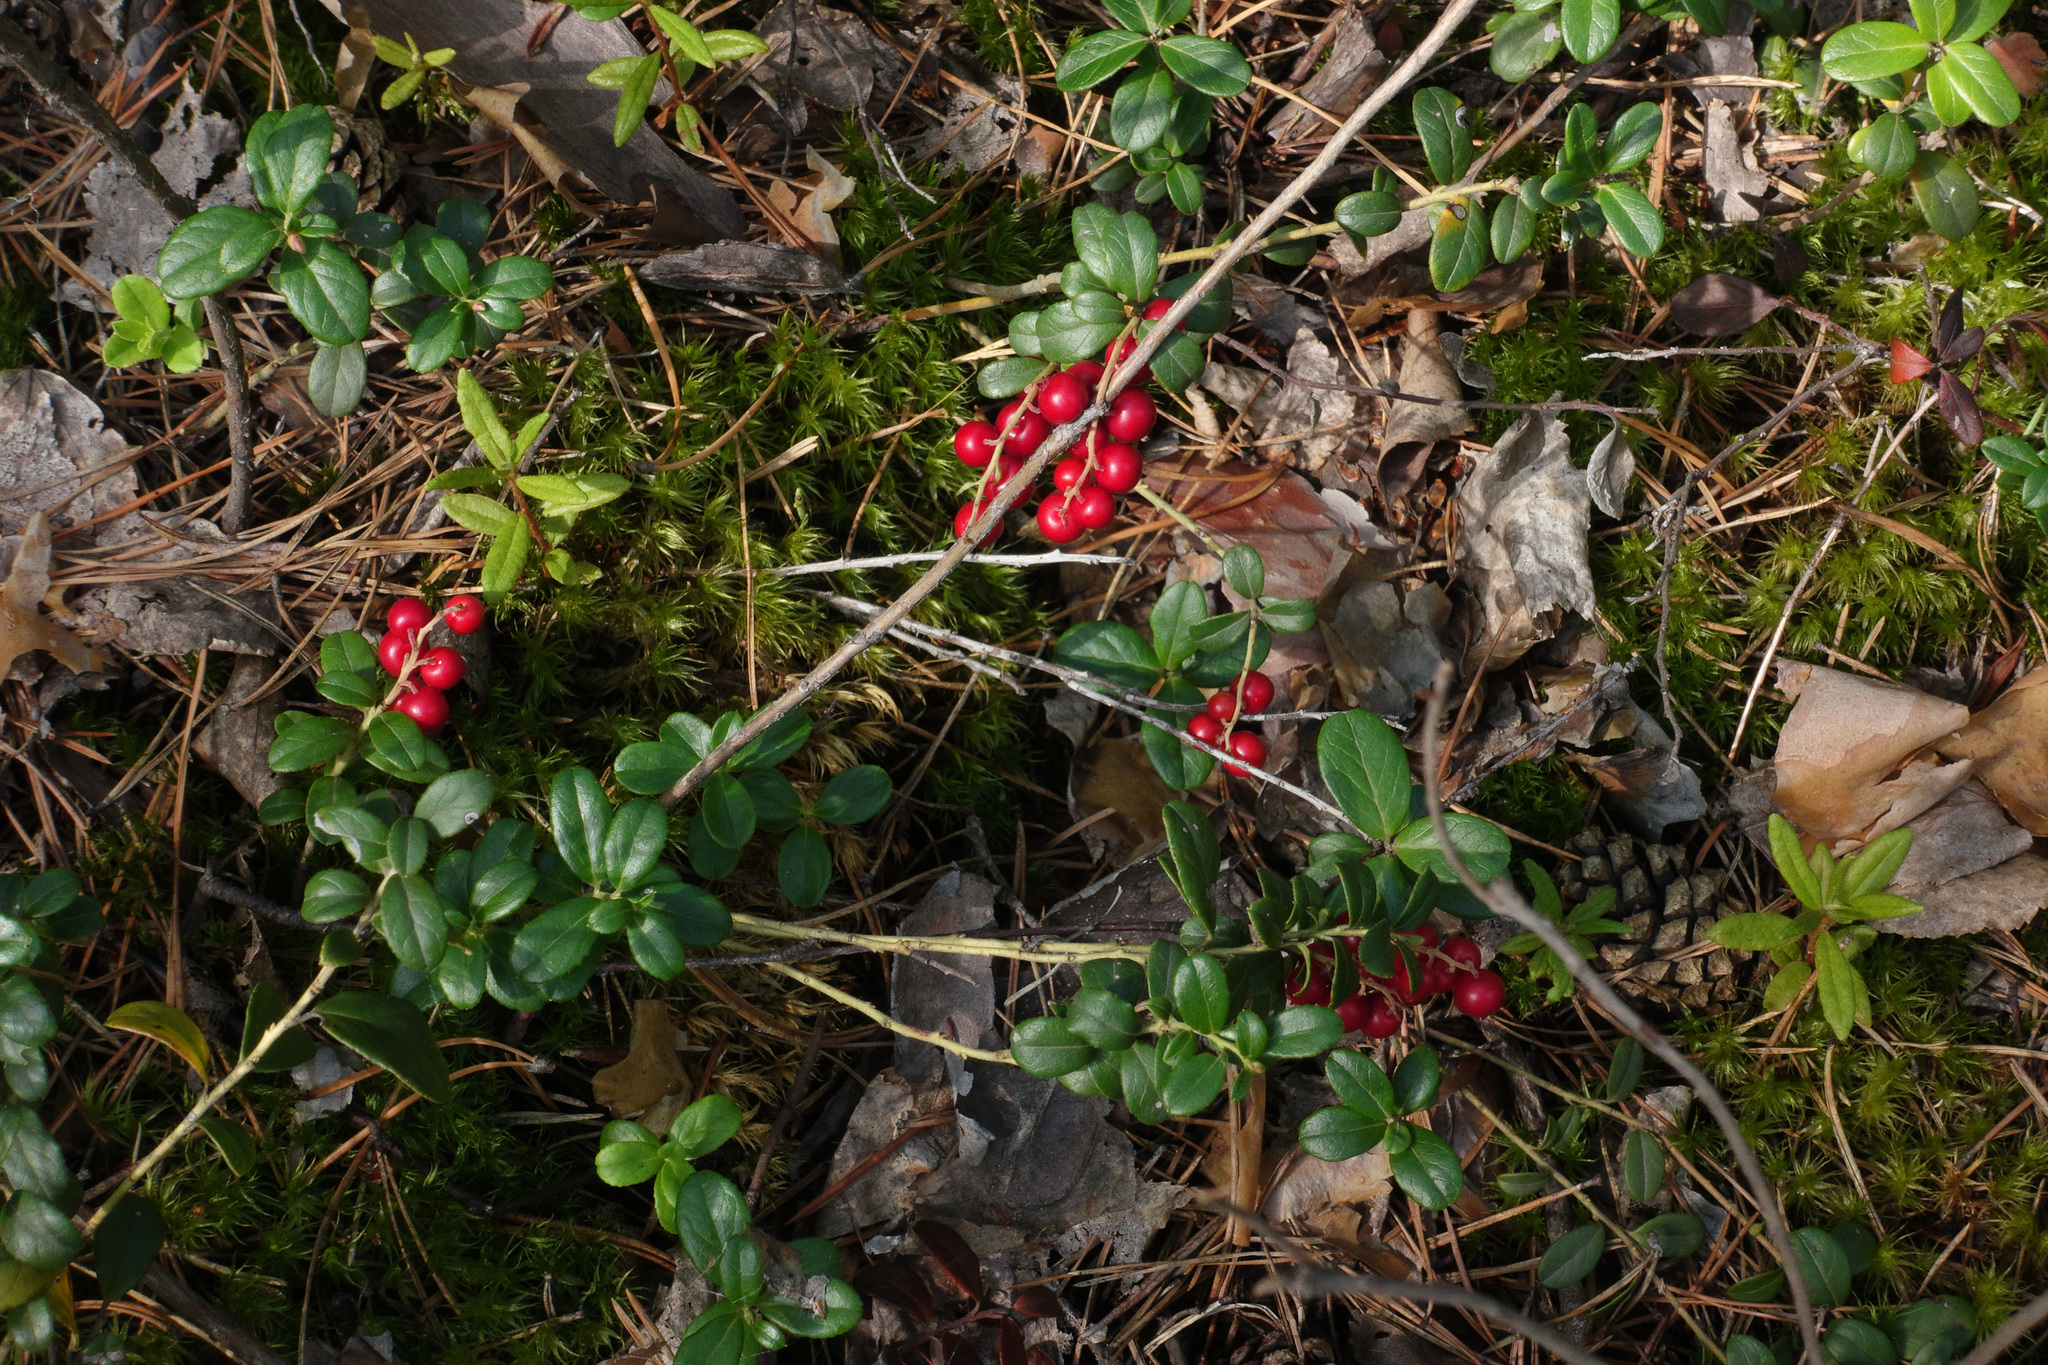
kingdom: Plantae
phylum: Tracheophyta
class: Magnoliopsida
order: Ericales
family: Ericaceae
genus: Vaccinium
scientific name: Vaccinium vitis-idaea
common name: Cowberry
